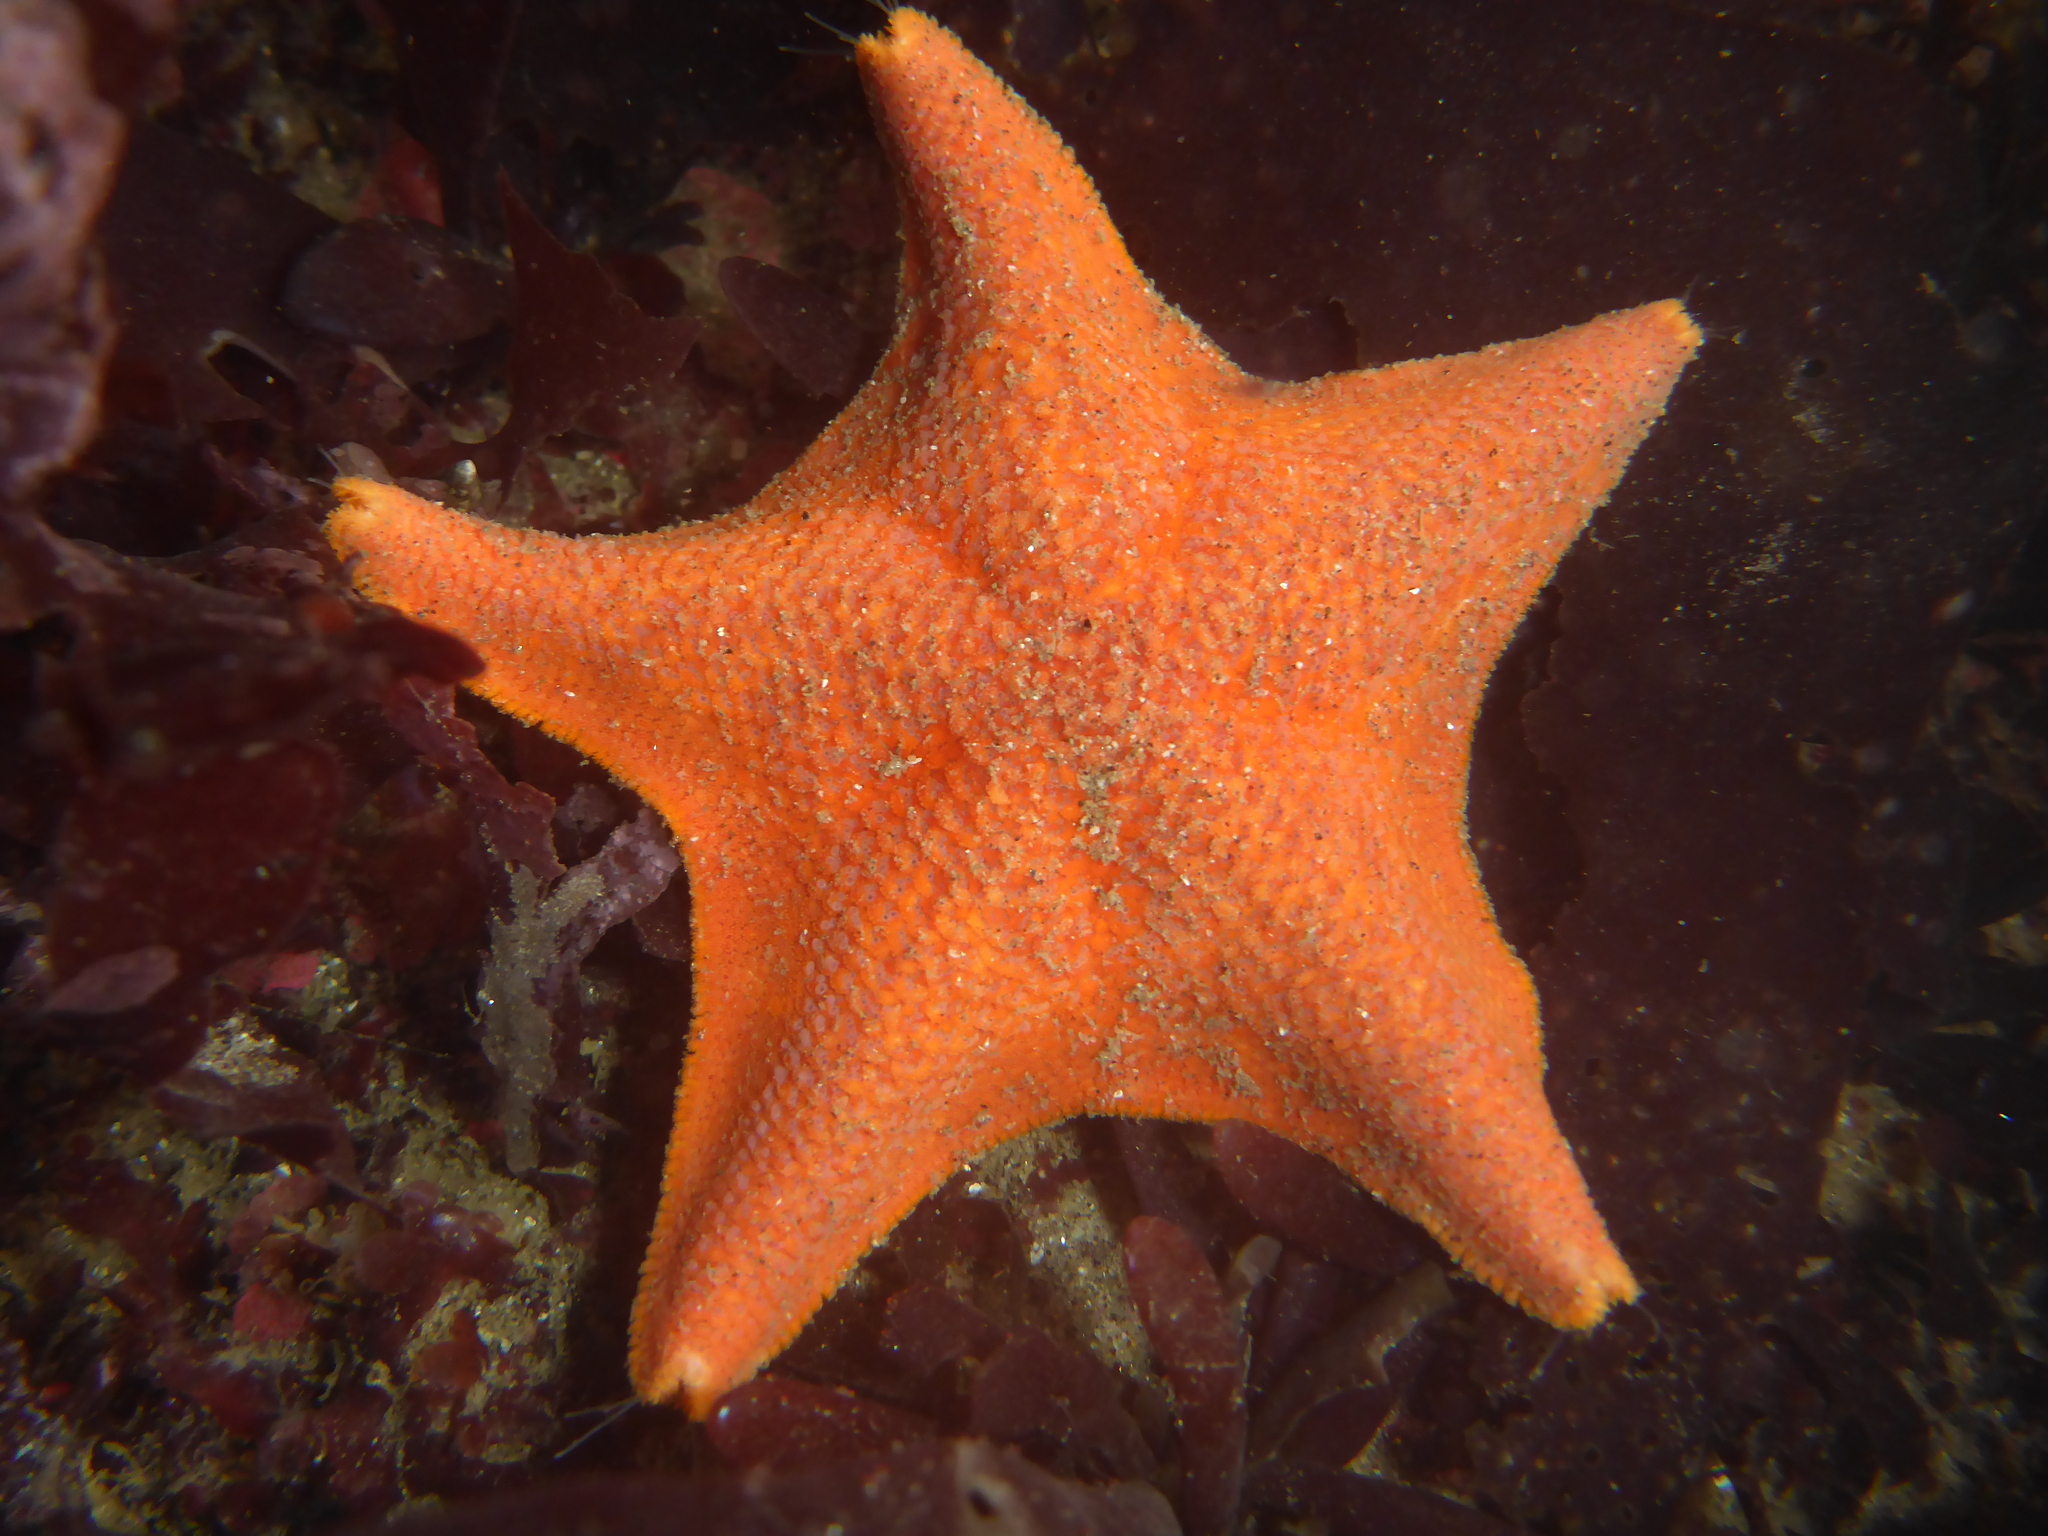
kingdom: Animalia
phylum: Echinodermata
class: Asteroidea
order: Valvatida
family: Asterinidae
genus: Patiria
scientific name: Patiria miniata
